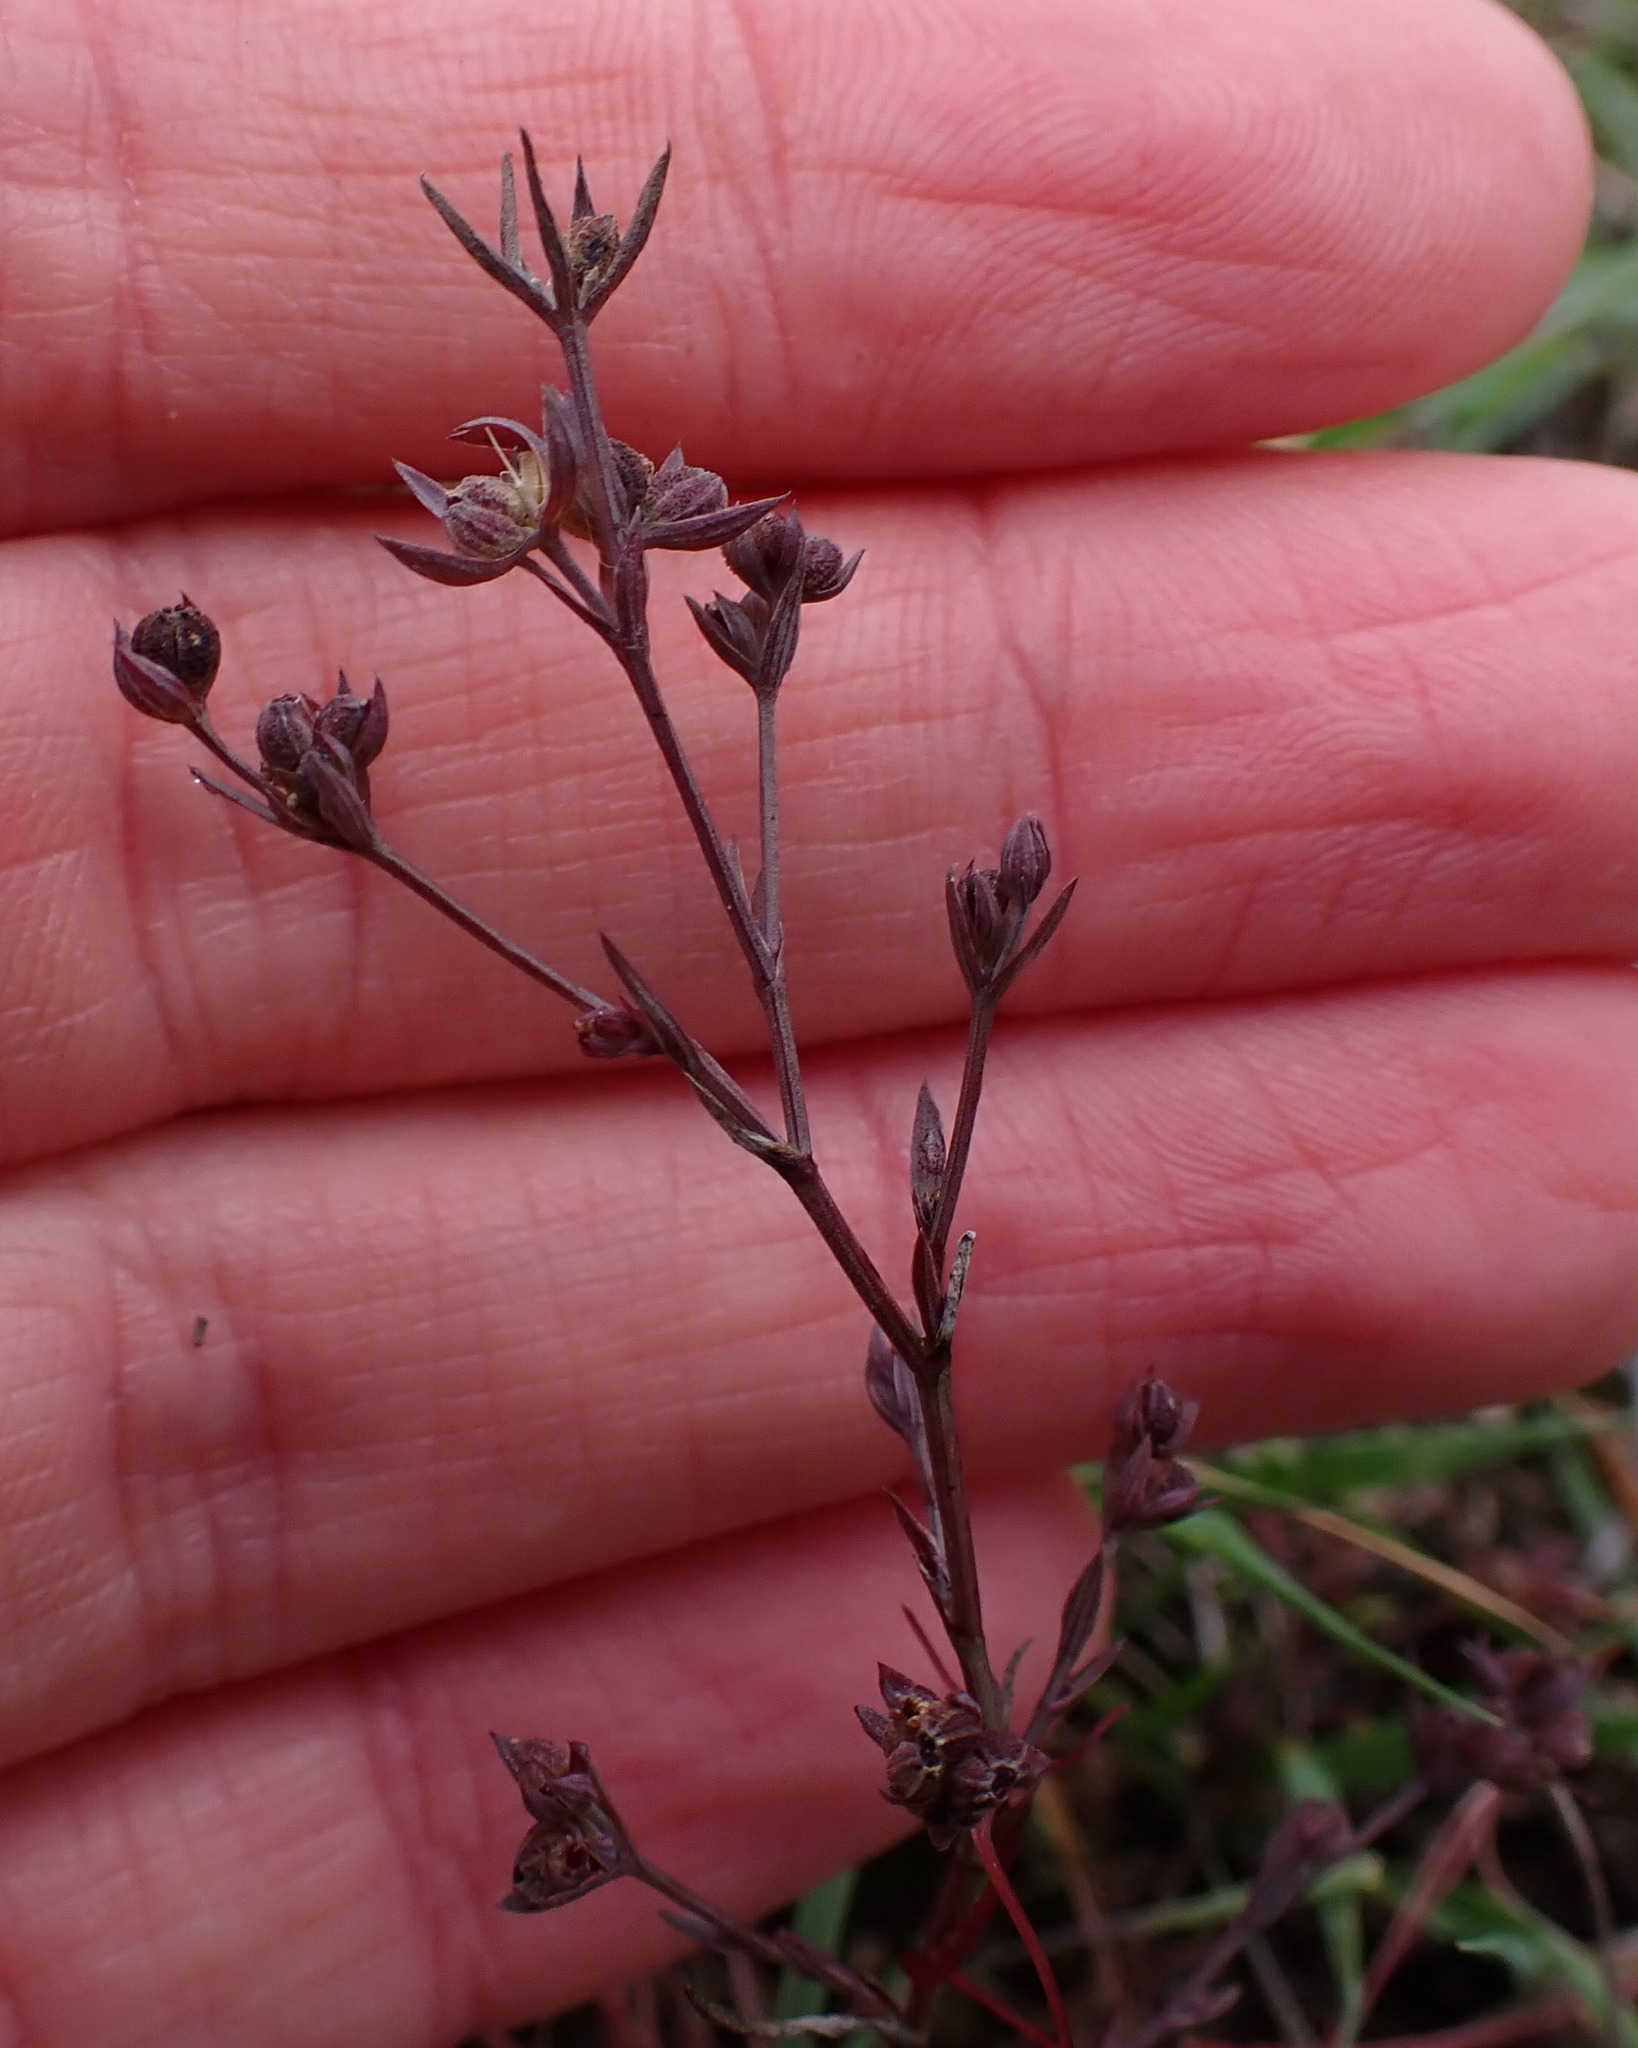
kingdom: Plantae
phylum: Tracheophyta
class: Magnoliopsida
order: Apiales
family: Apiaceae
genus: Bupleurum
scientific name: Bupleurum tenuissimum
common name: Slender hare's-ear
